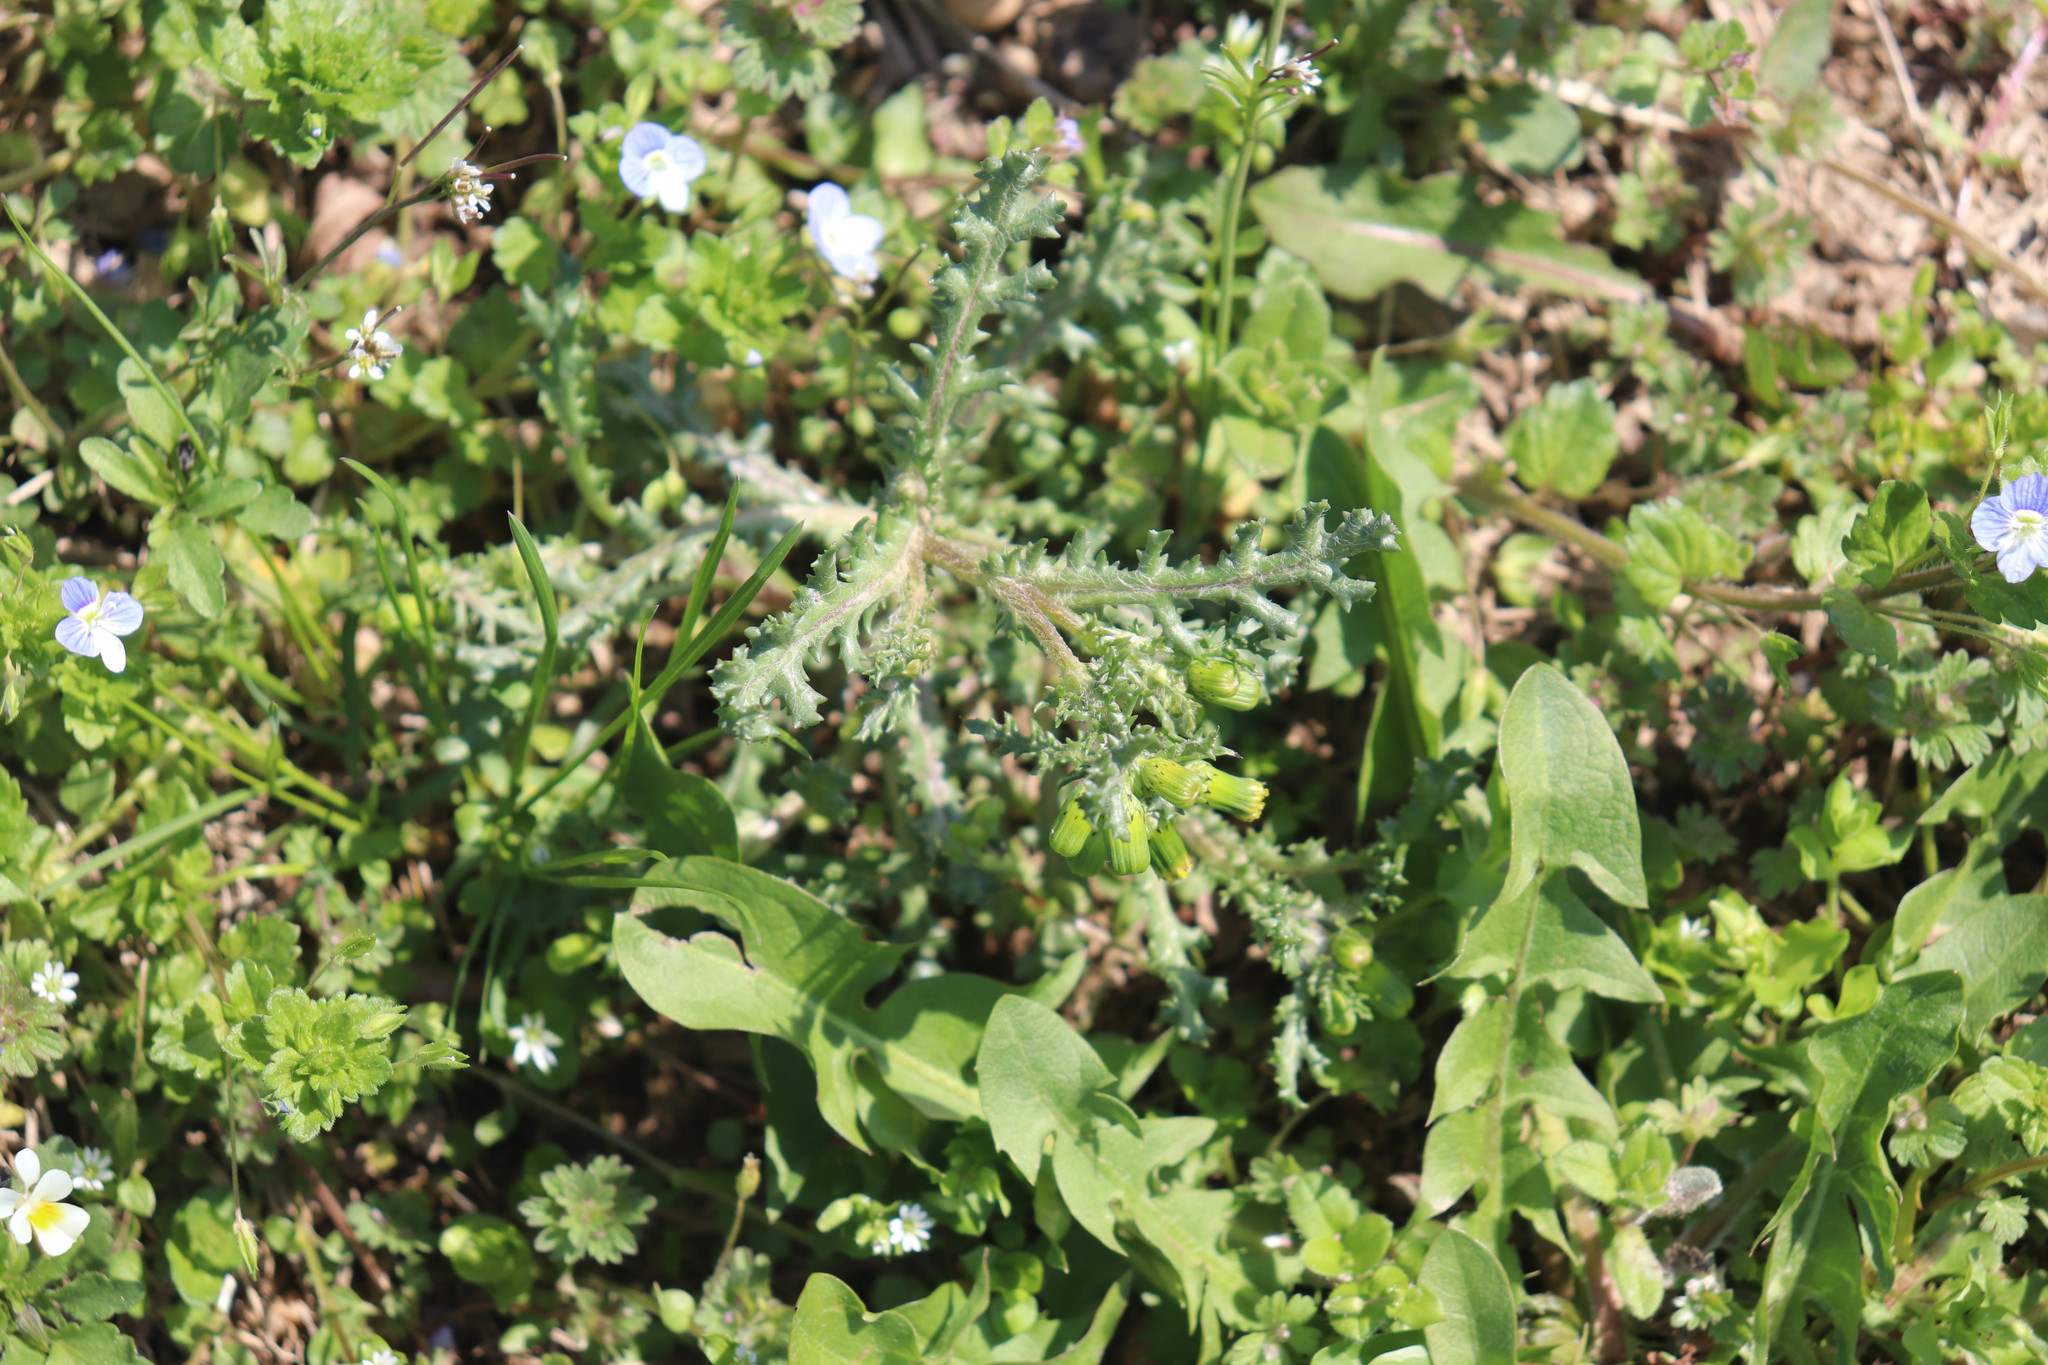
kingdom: Plantae
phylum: Tracheophyta
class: Magnoliopsida
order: Asterales
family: Asteraceae
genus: Senecio
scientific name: Senecio vulgaris
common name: Old-man-in-the-spring
